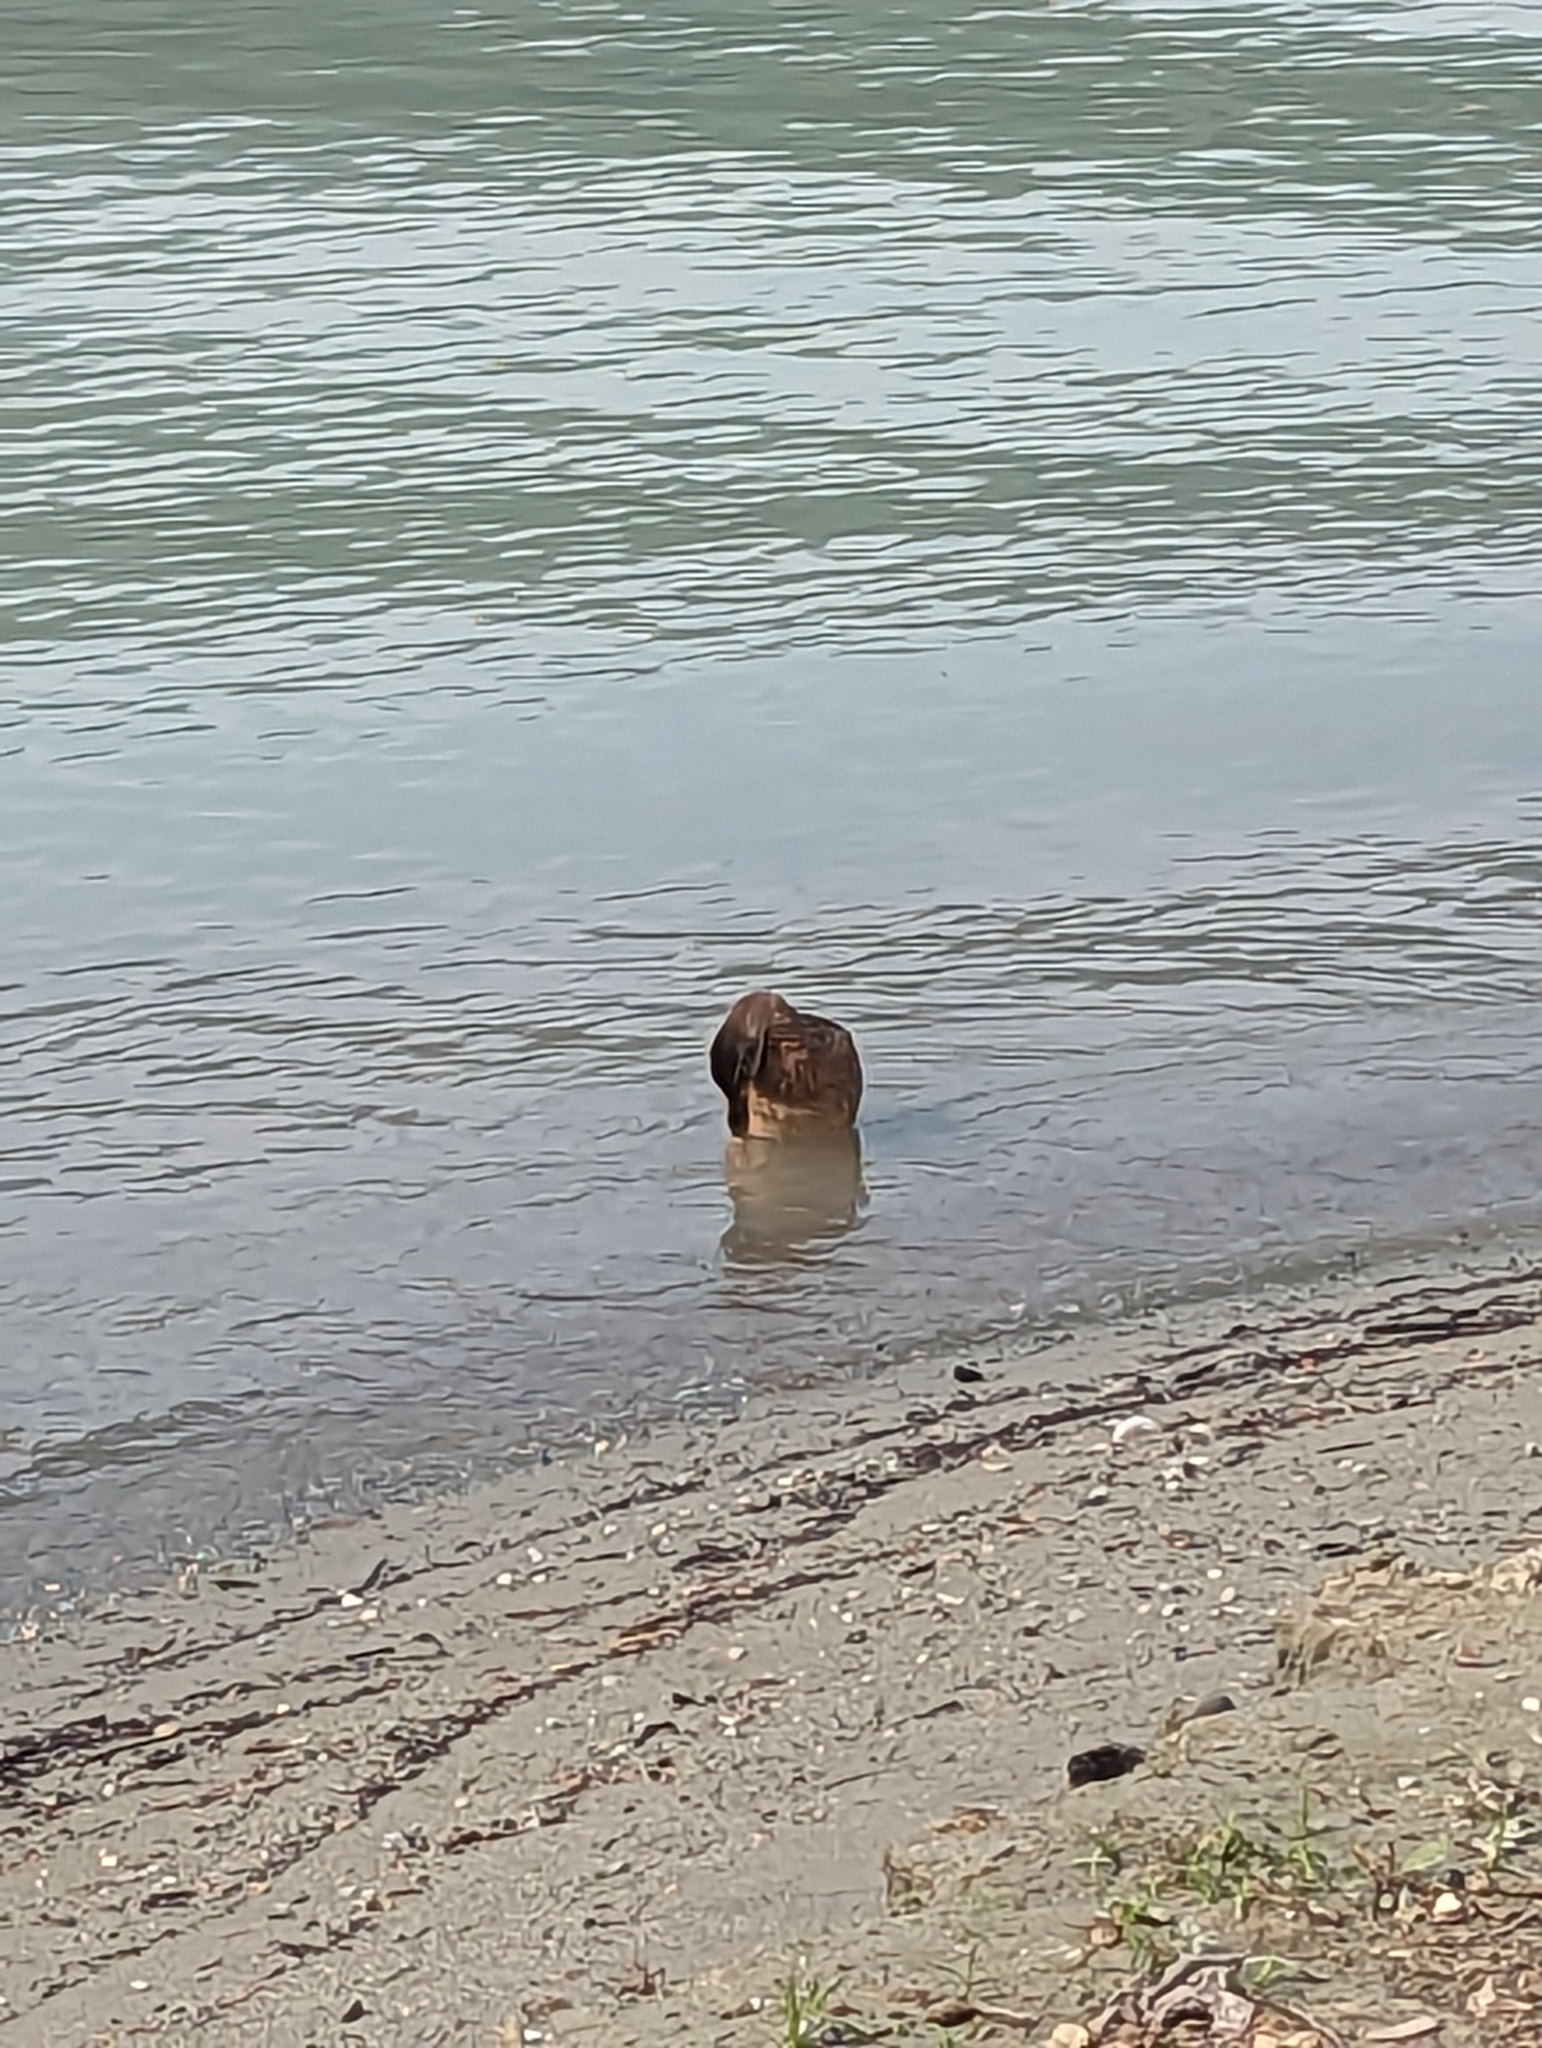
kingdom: Animalia
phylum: Chordata
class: Aves
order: Anseriformes
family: Anatidae
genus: Anas
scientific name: Anas platyrhynchos
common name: Mallard
